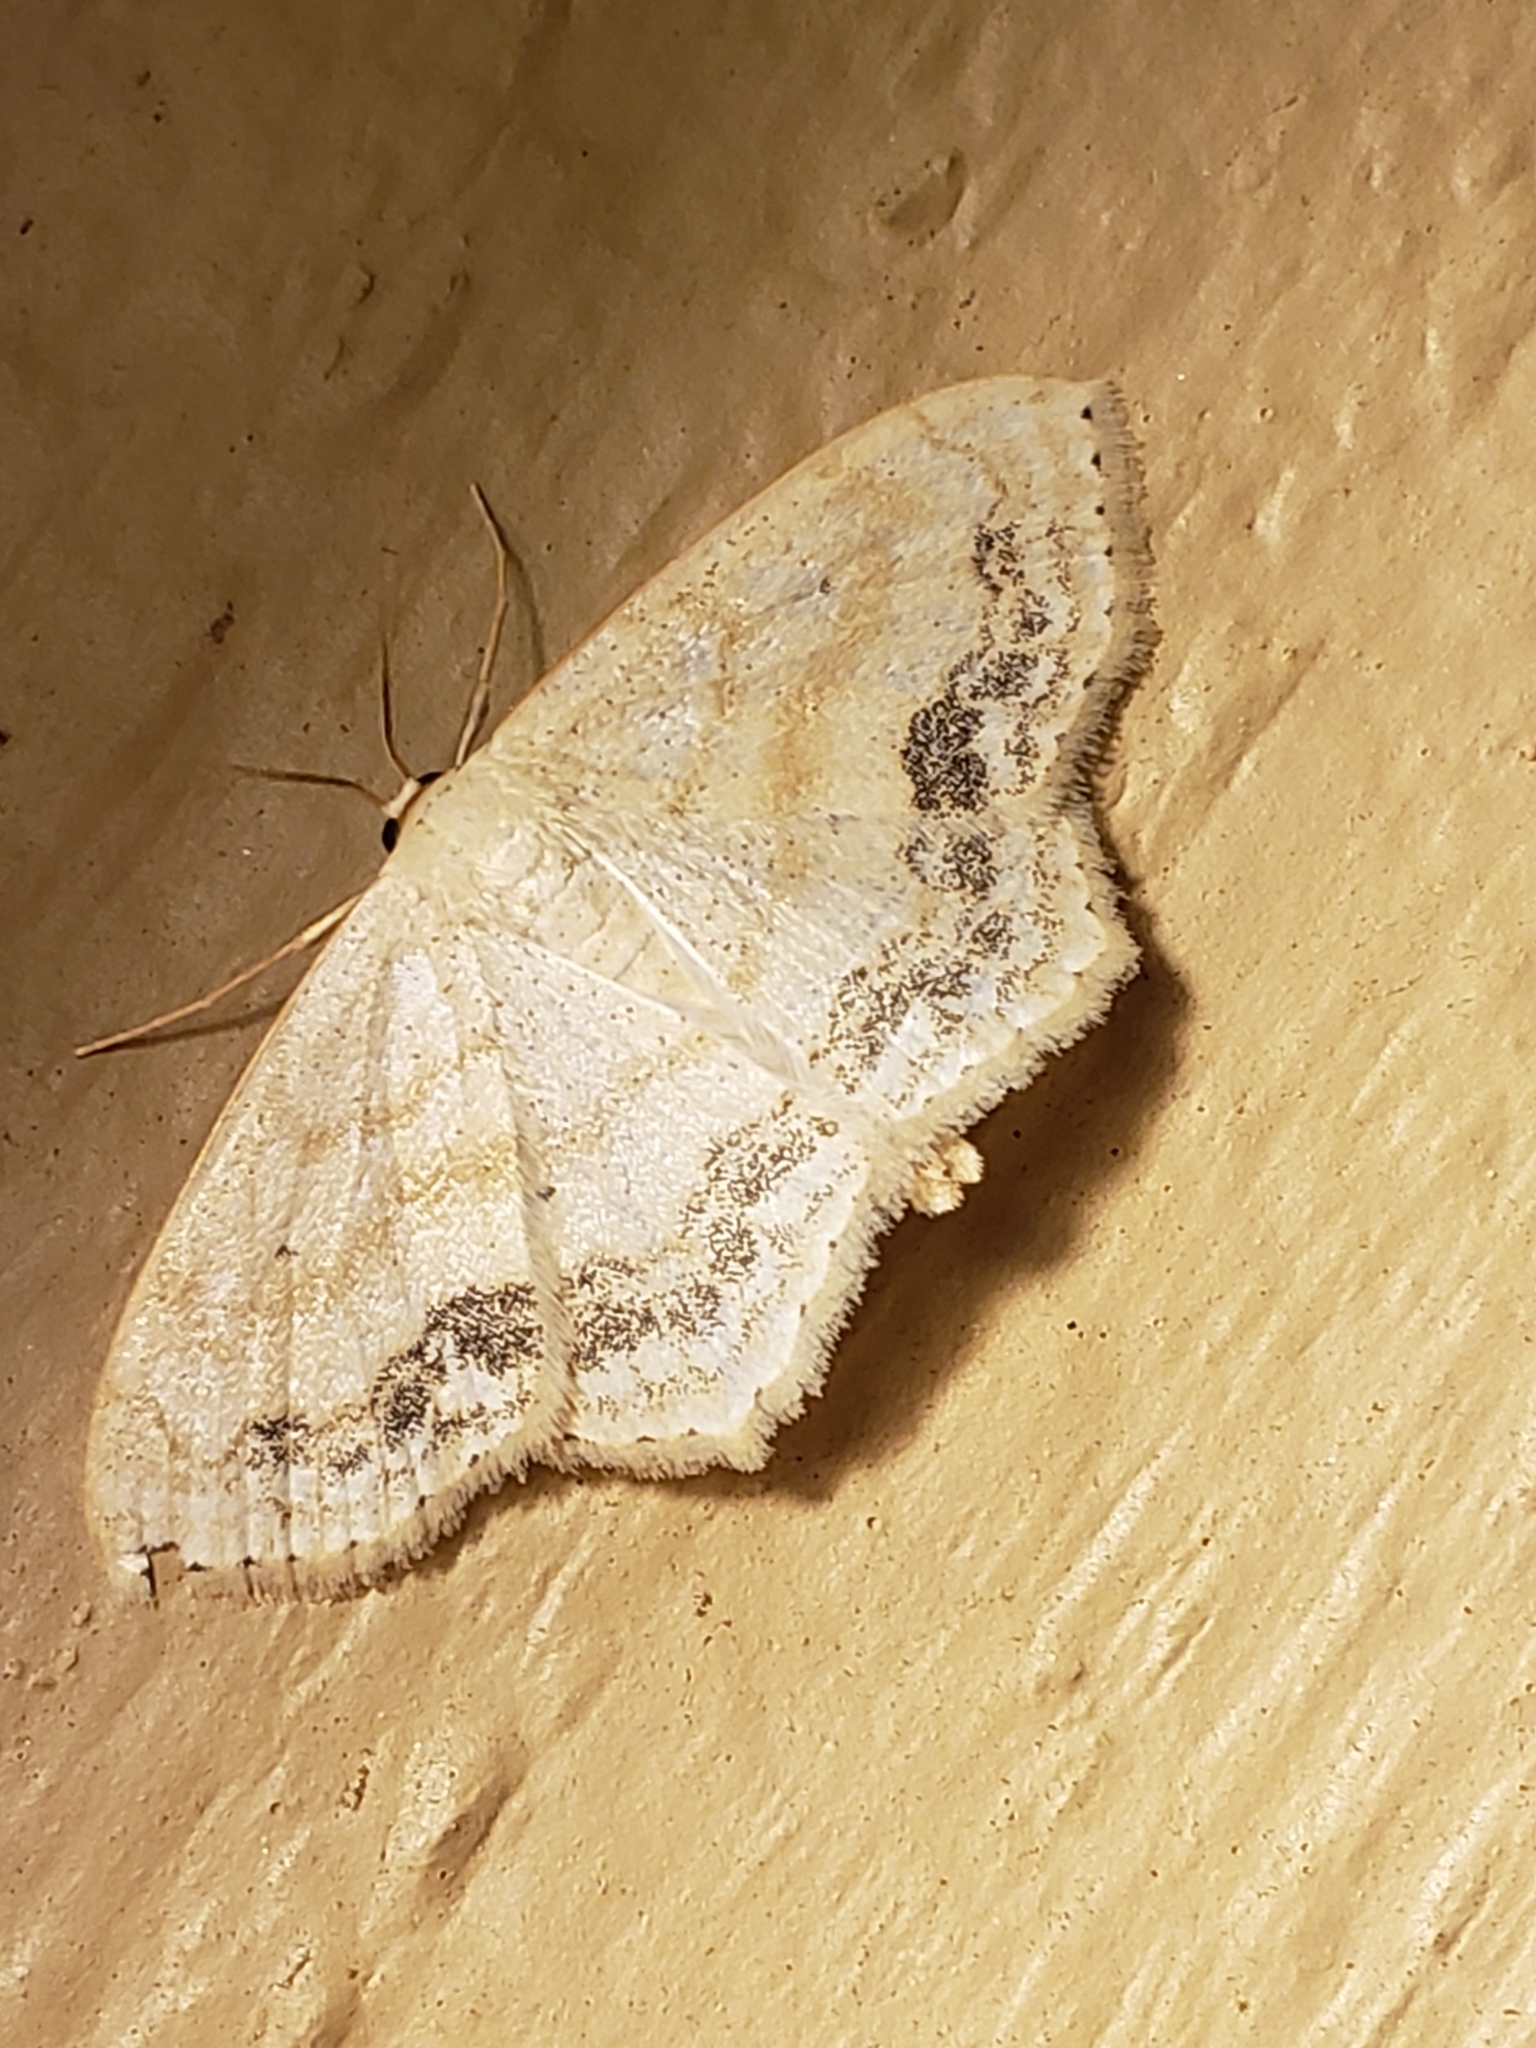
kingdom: Animalia
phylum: Arthropoda
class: Insecta
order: Lepidoptera
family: Geometridae
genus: Scopula
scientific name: Scopula limboundata
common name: Large lace border
